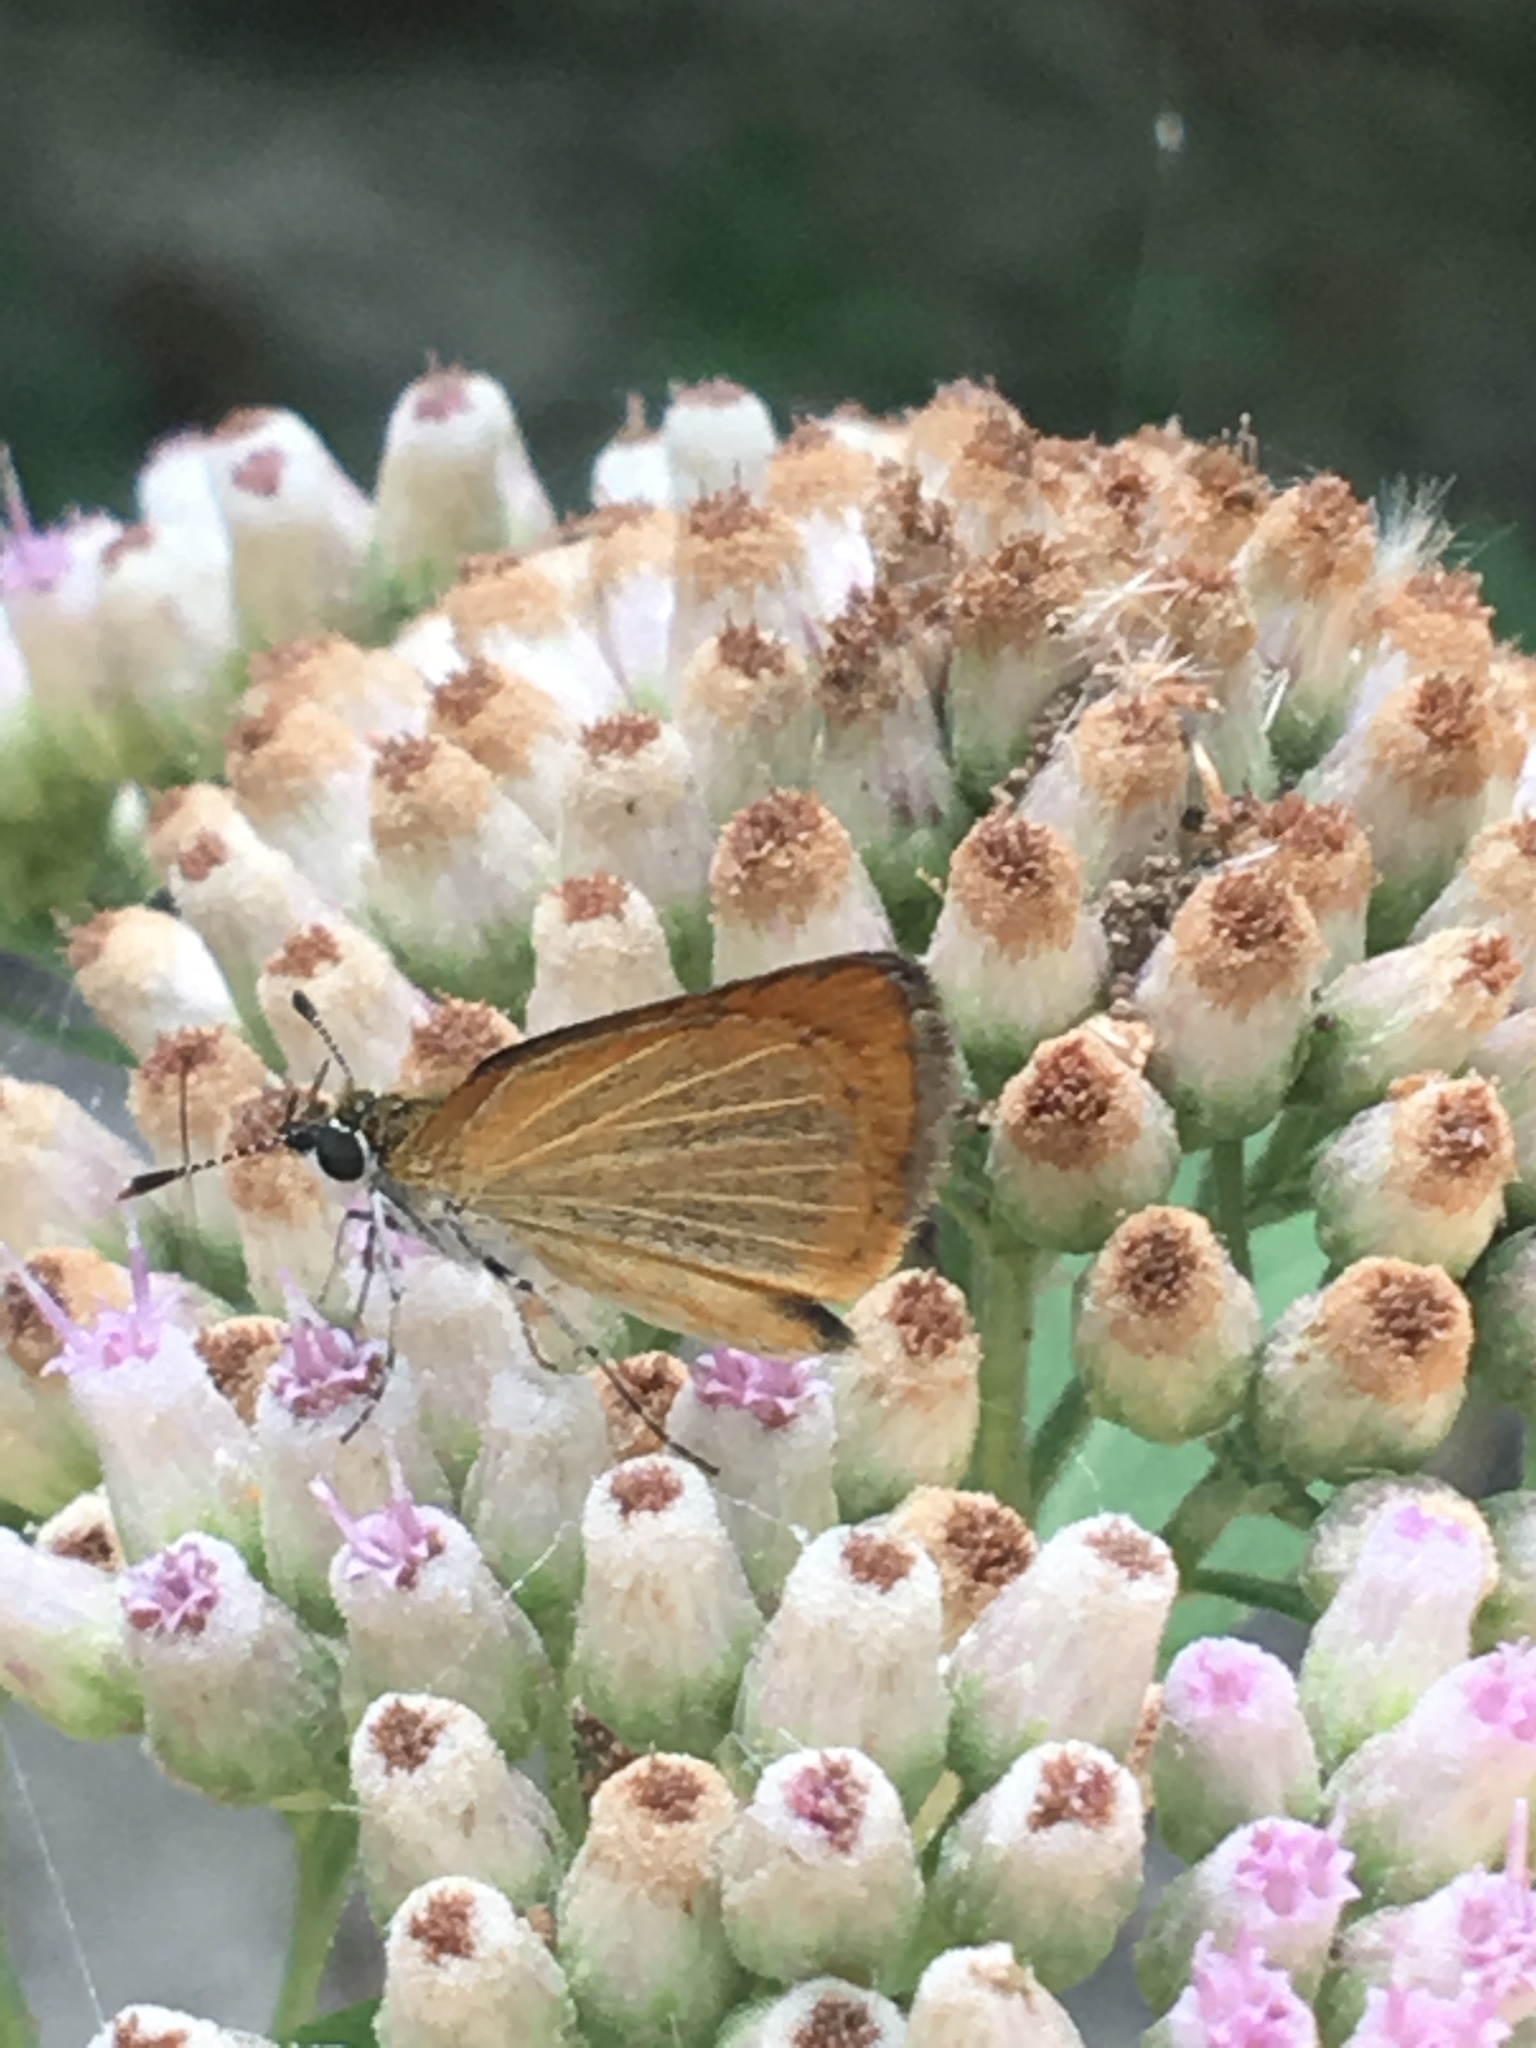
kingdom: Animalia
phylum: Arthropoda
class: Insecta
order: Lepidoptera
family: Hesperiidae
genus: Ancyloxypha
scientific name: Ancyloxypha numitor
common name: Least skipper
